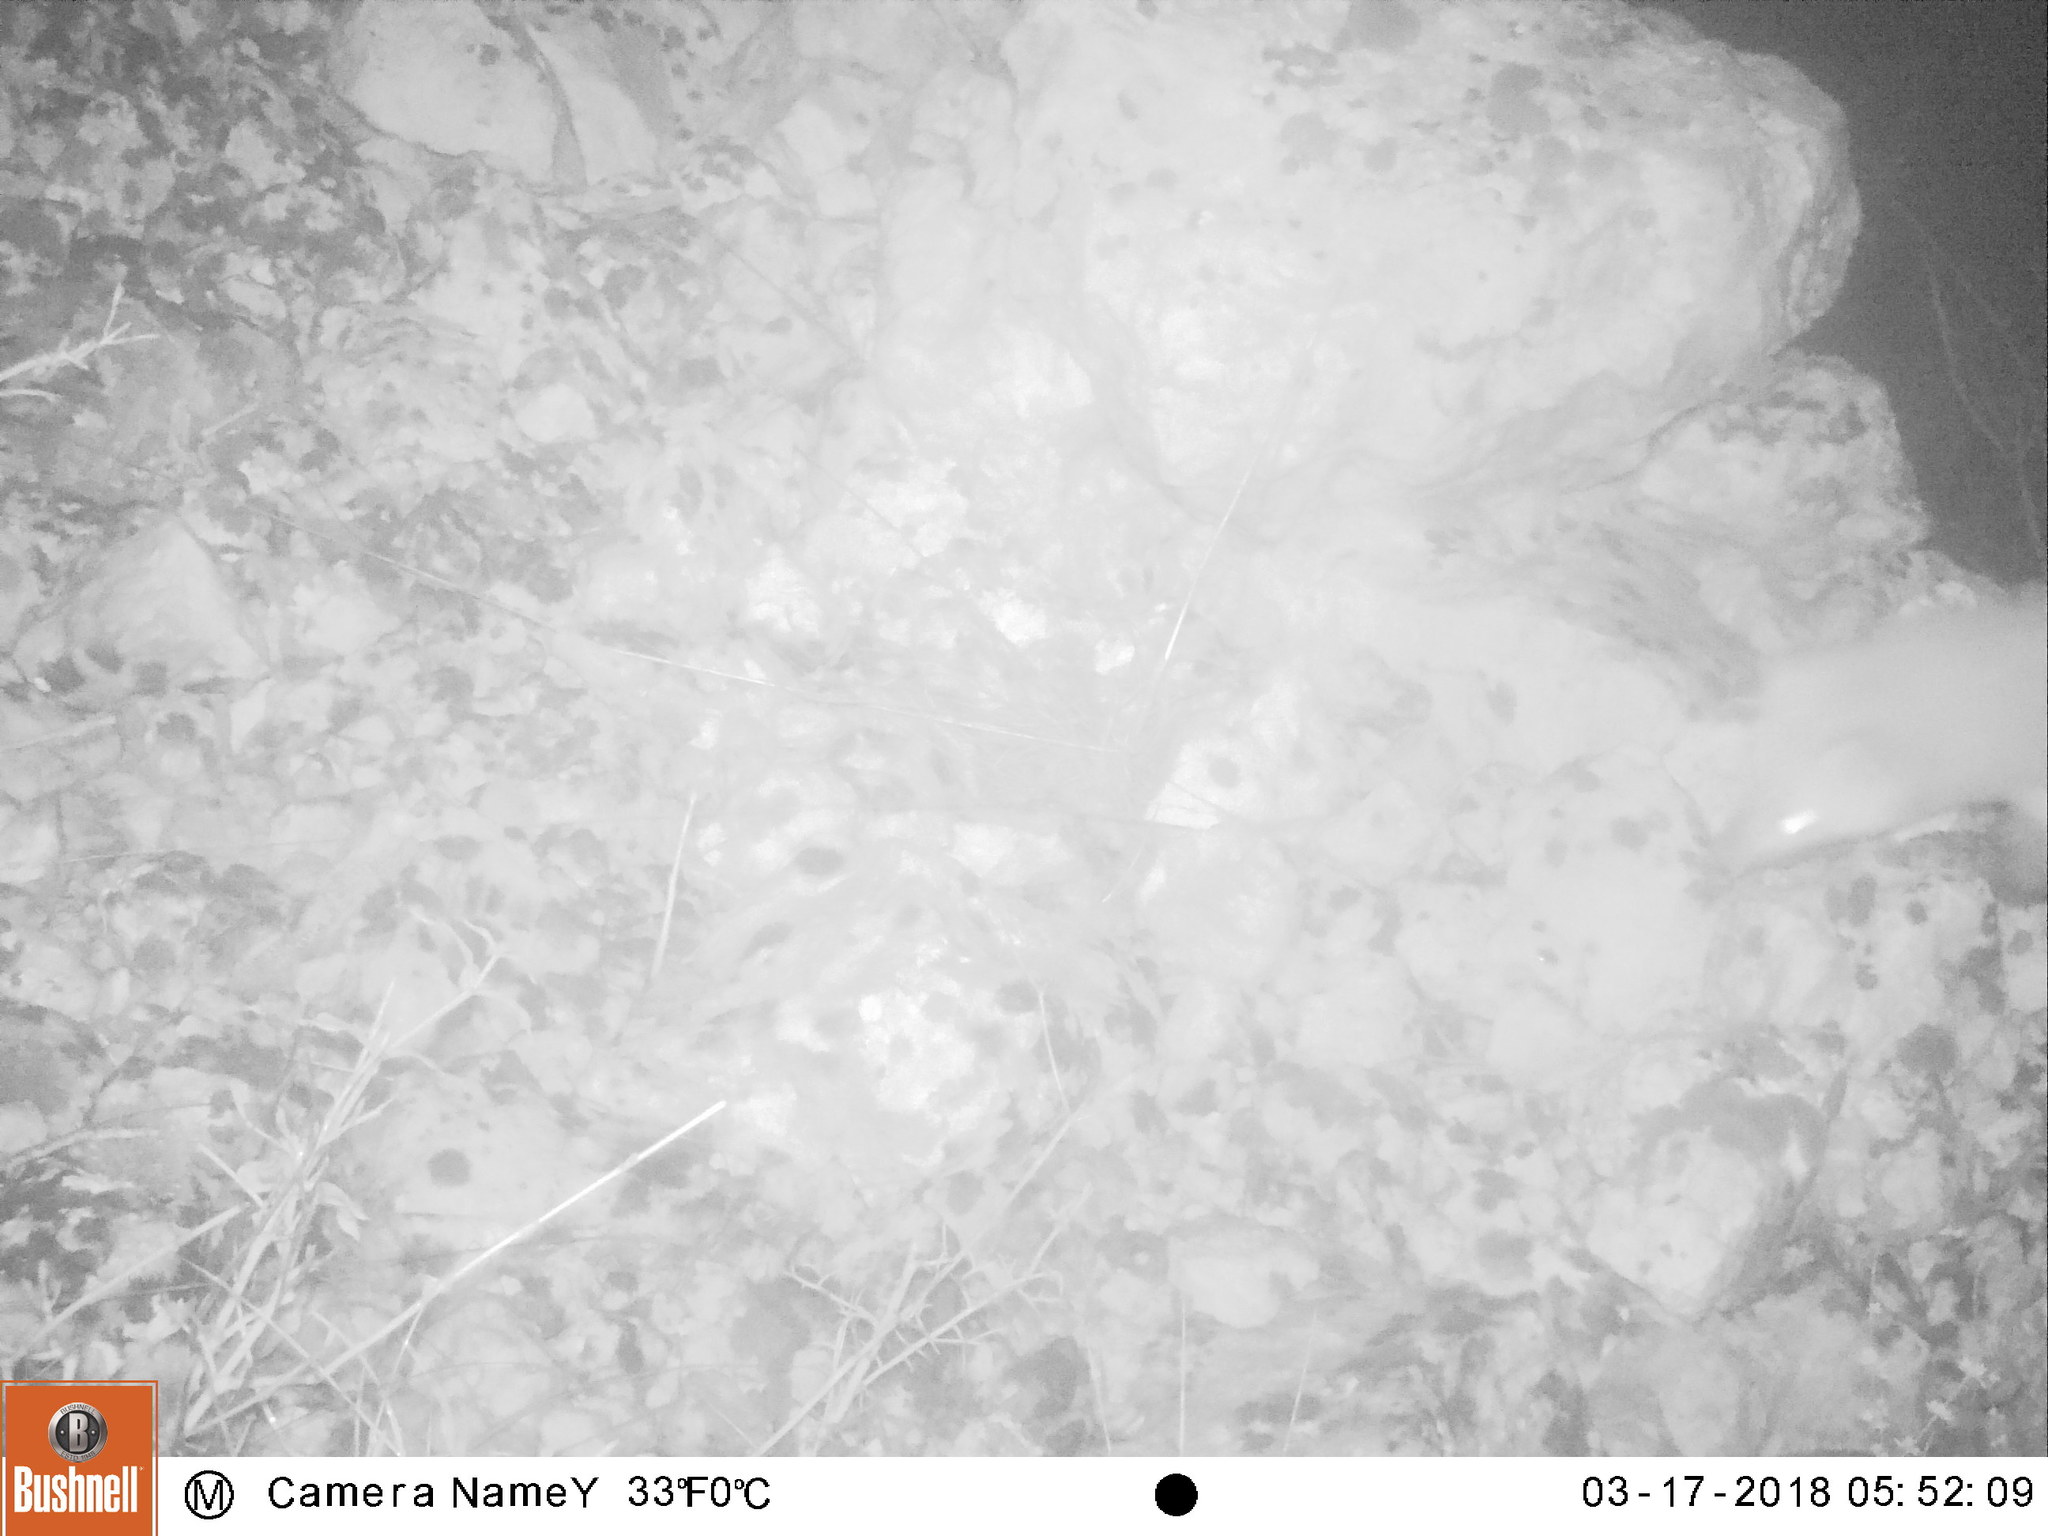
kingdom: Animalia
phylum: Chordata
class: Mammalia
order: Carnivora
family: Mustelidae
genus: Martes
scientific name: Martes foina
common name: Beech marten
